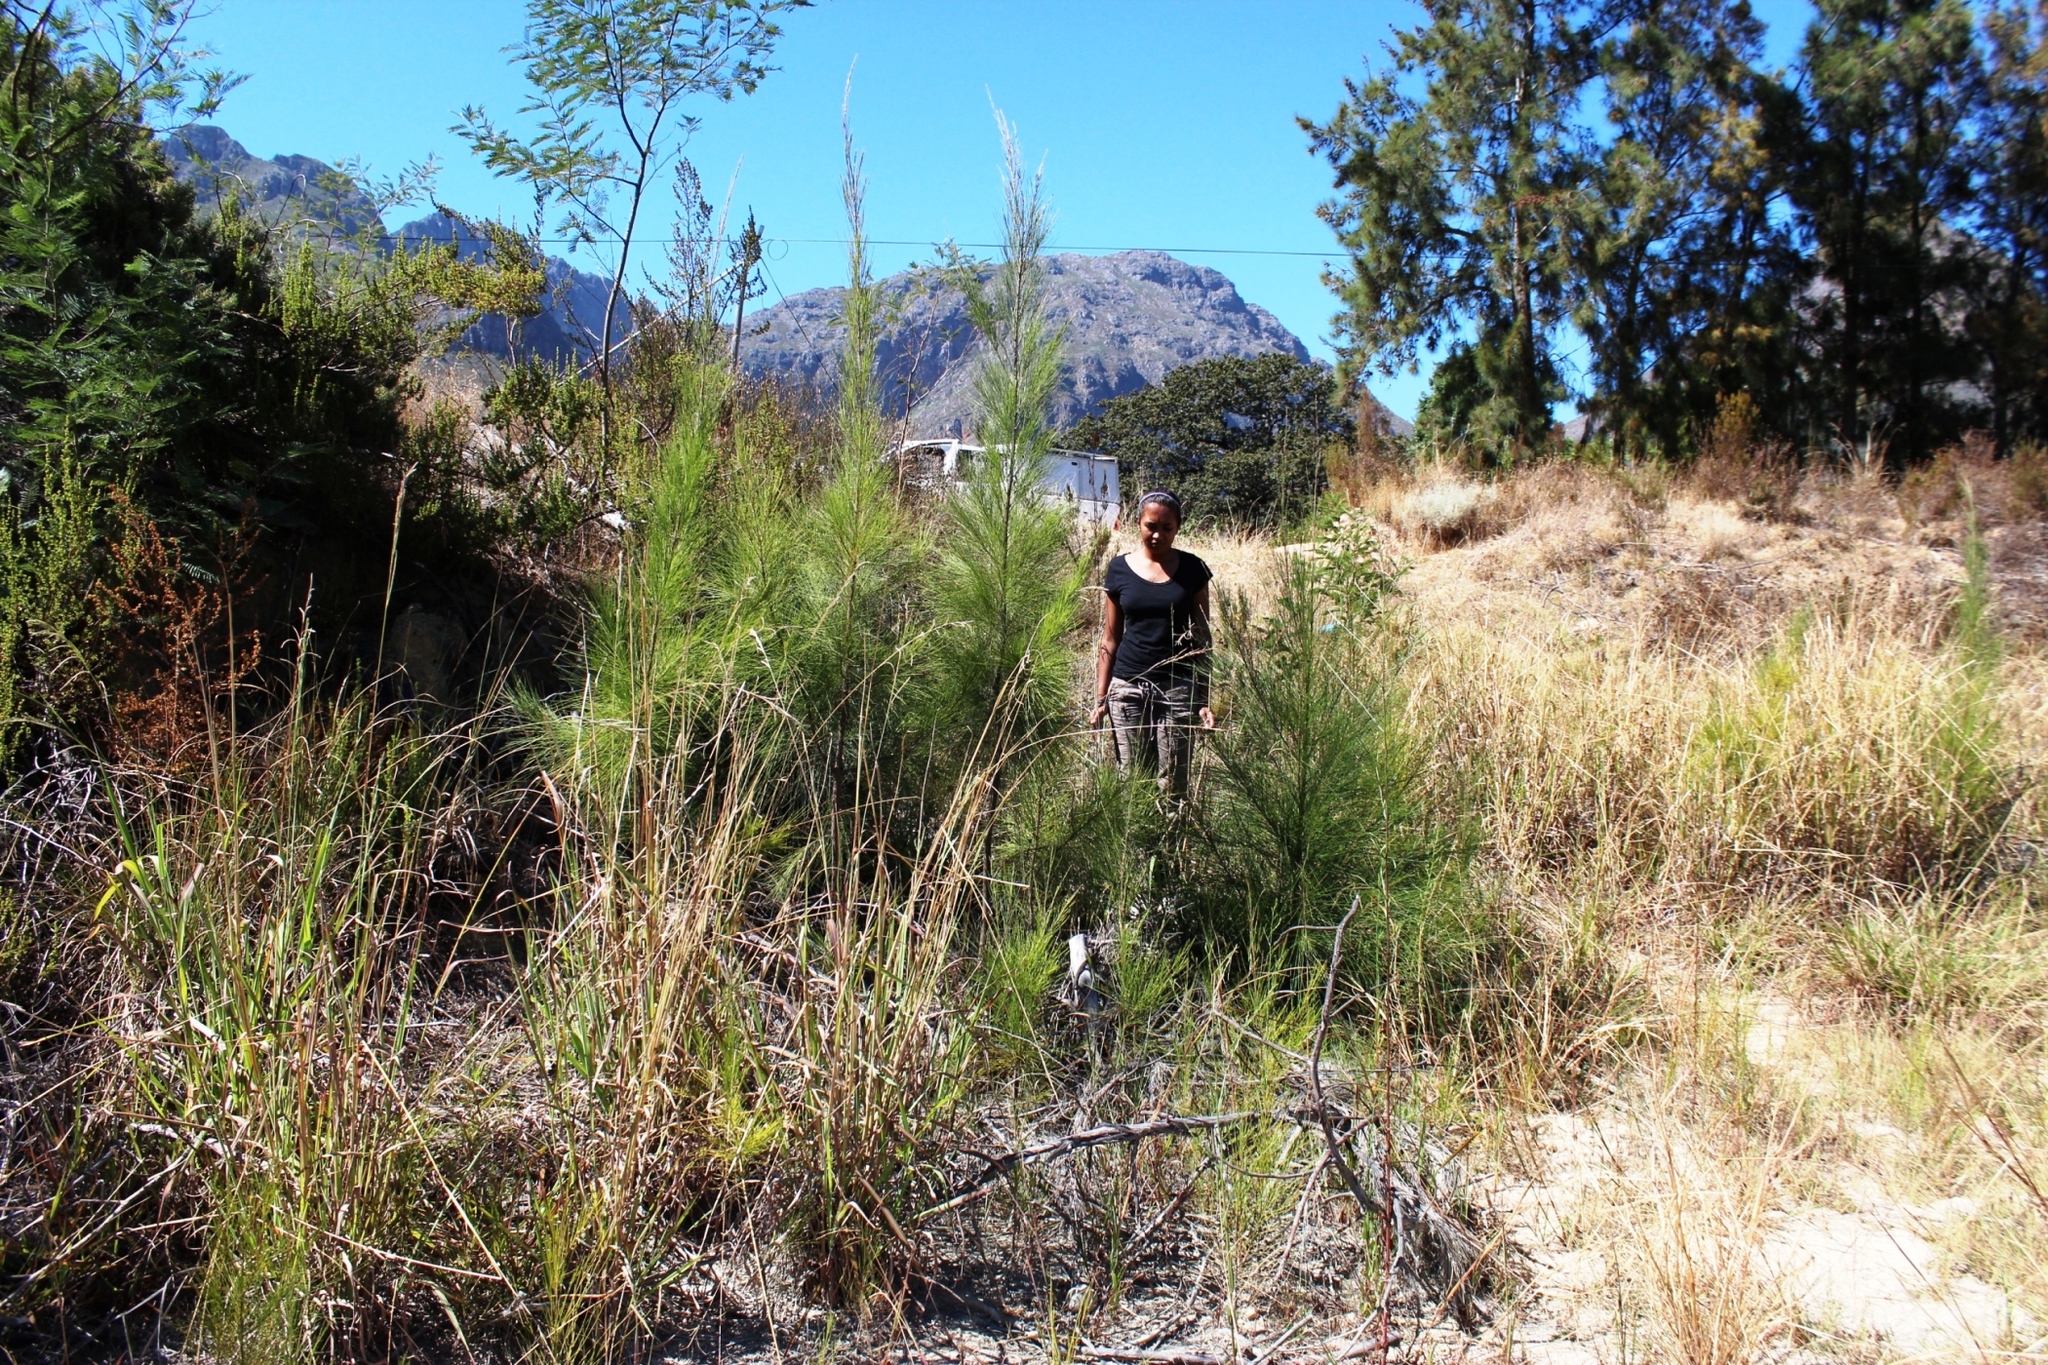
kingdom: Plantae
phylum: Tracheophyta
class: Magnoliopsida
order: Fagales
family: Casuarinaceae
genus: Casuarina
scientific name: Casuarina cunninghamiana
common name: River sheoak
